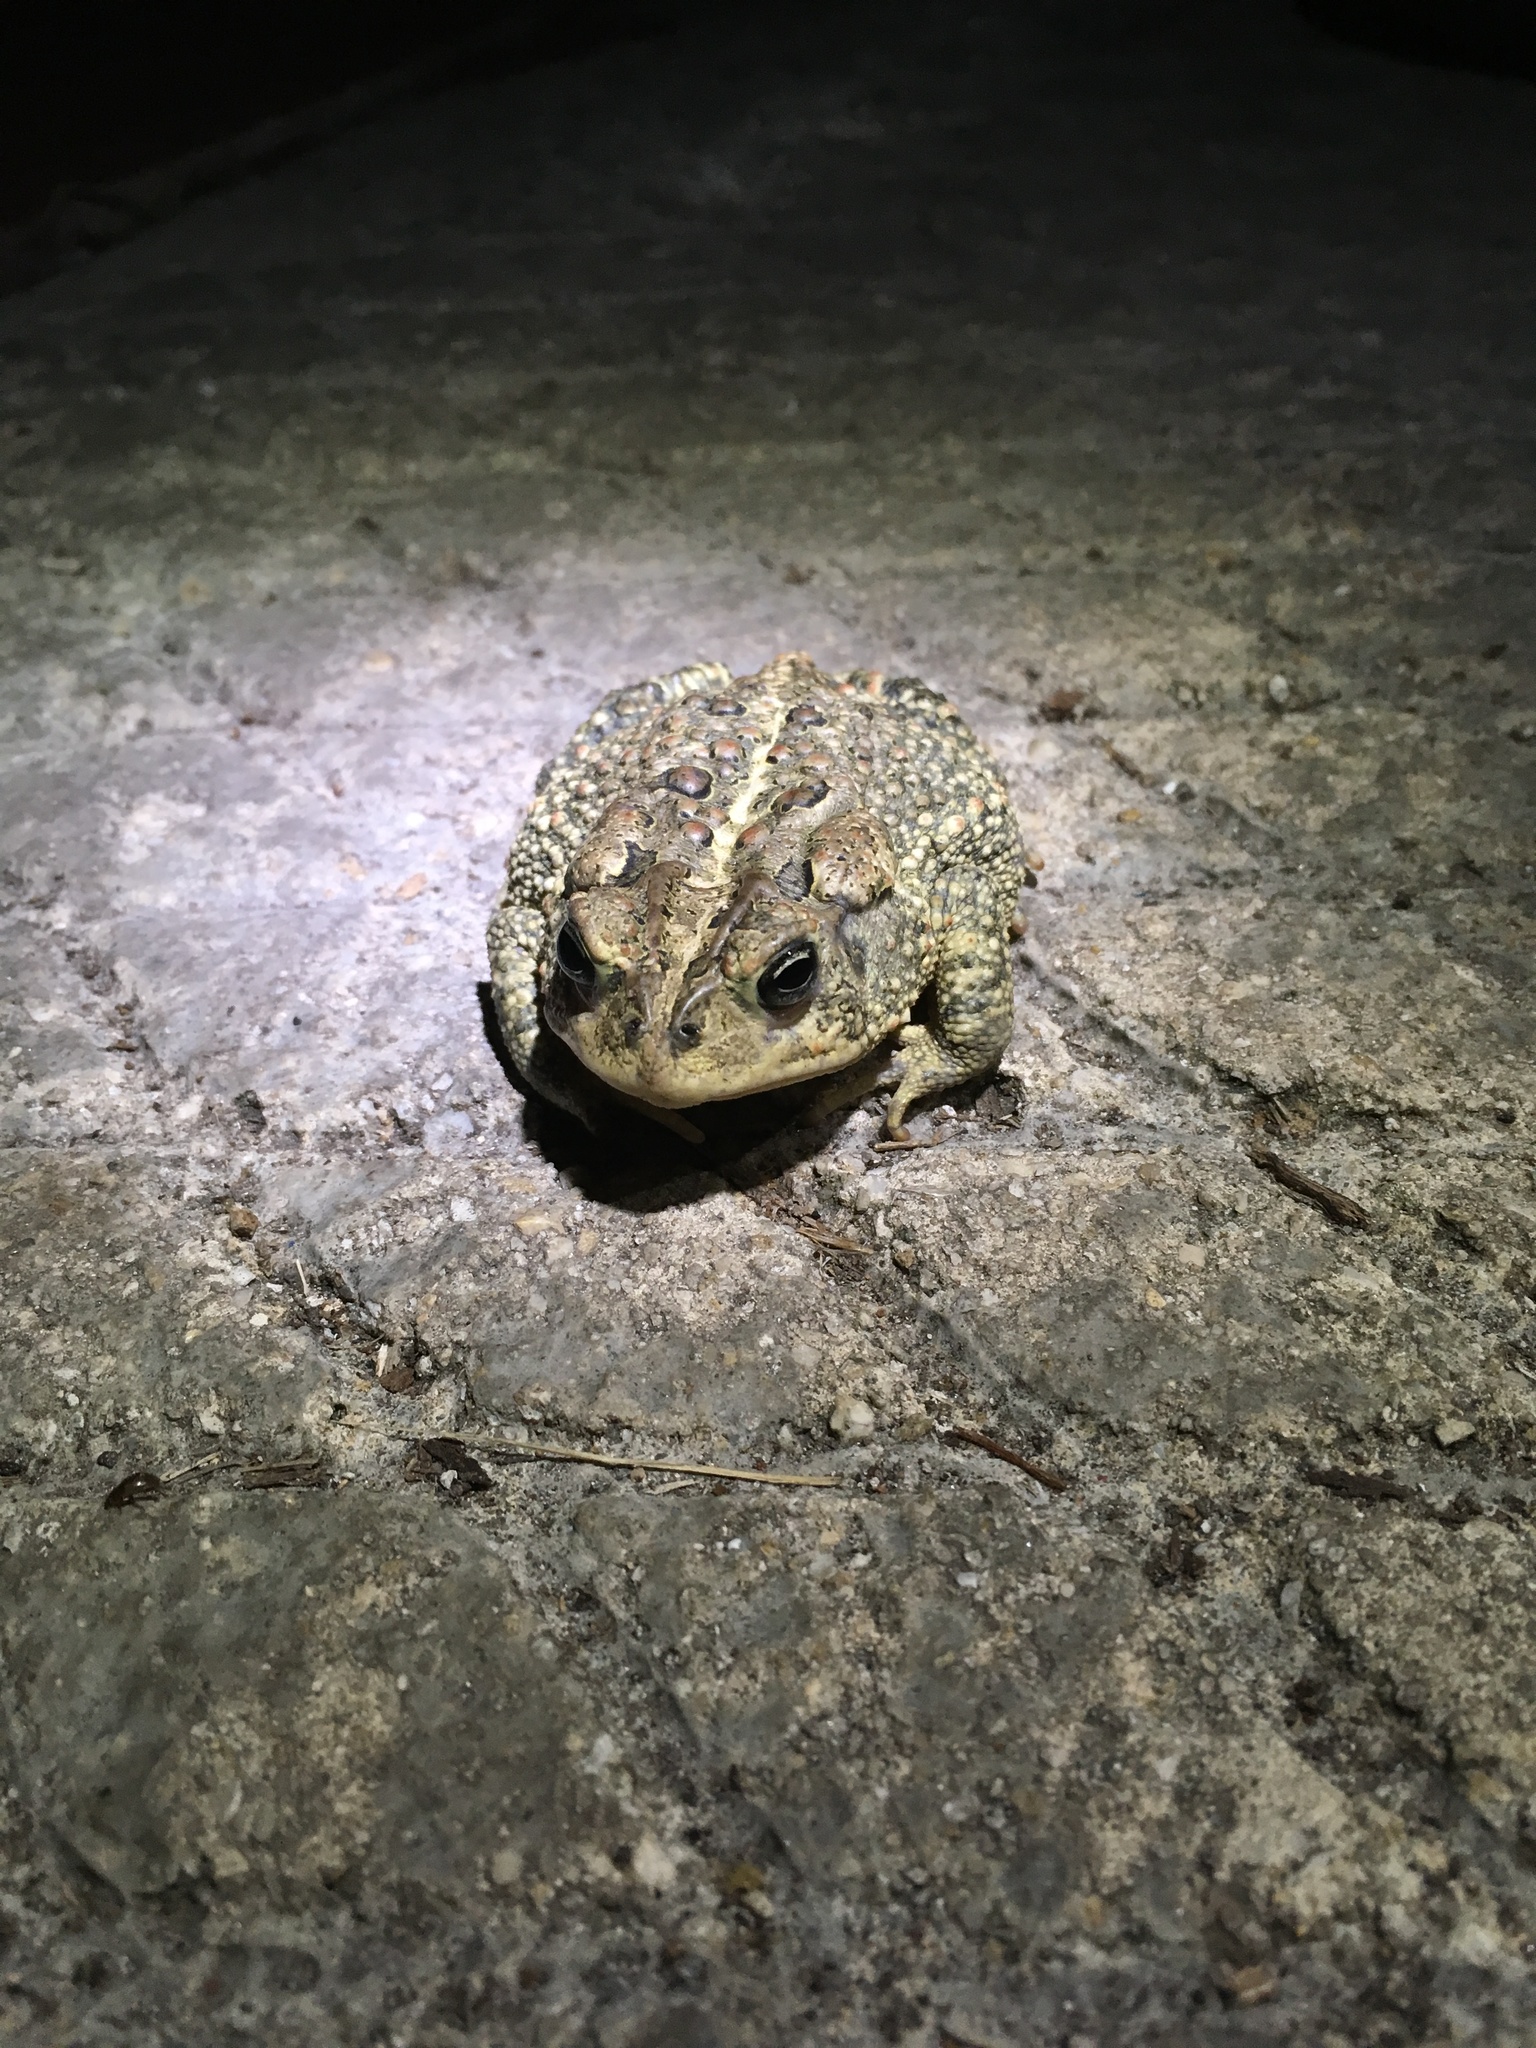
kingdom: Animalia
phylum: Chordata
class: Amphibia
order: Anura
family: Bufonidae
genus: Anaxyrus
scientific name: Anaxyrus terrestris
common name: Southern toad
